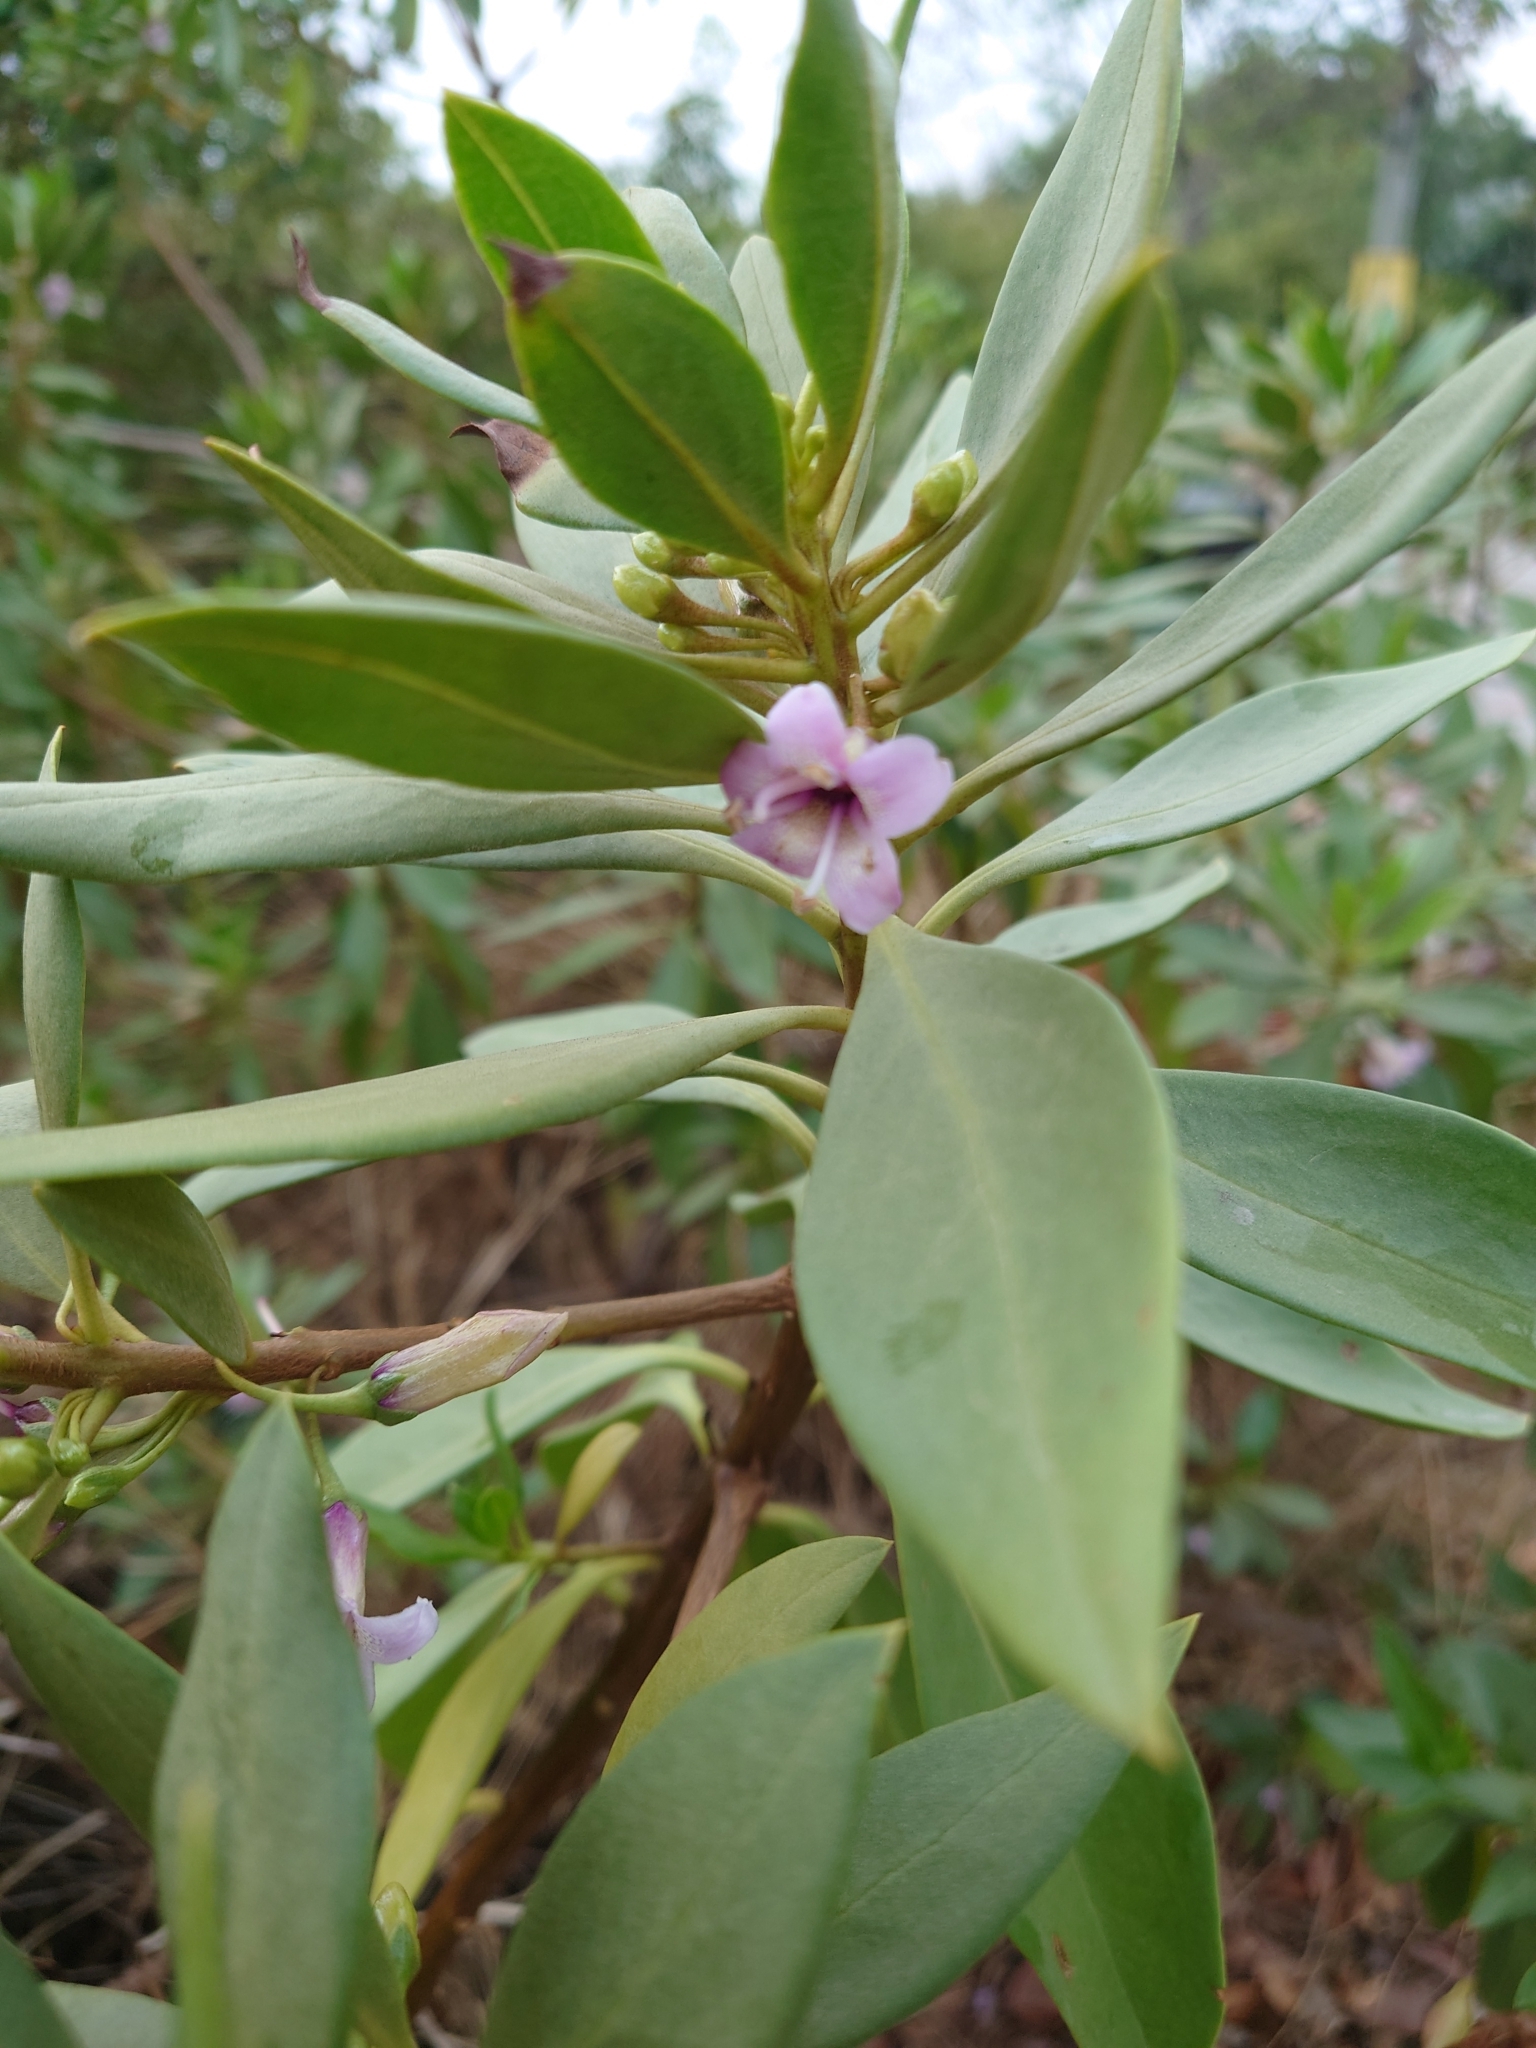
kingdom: Plantae
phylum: Tracheophyta
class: Magnoliopsida
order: Lamiales
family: Scrophulariaceae
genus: Myoporum
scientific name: Myoporum bontioides
